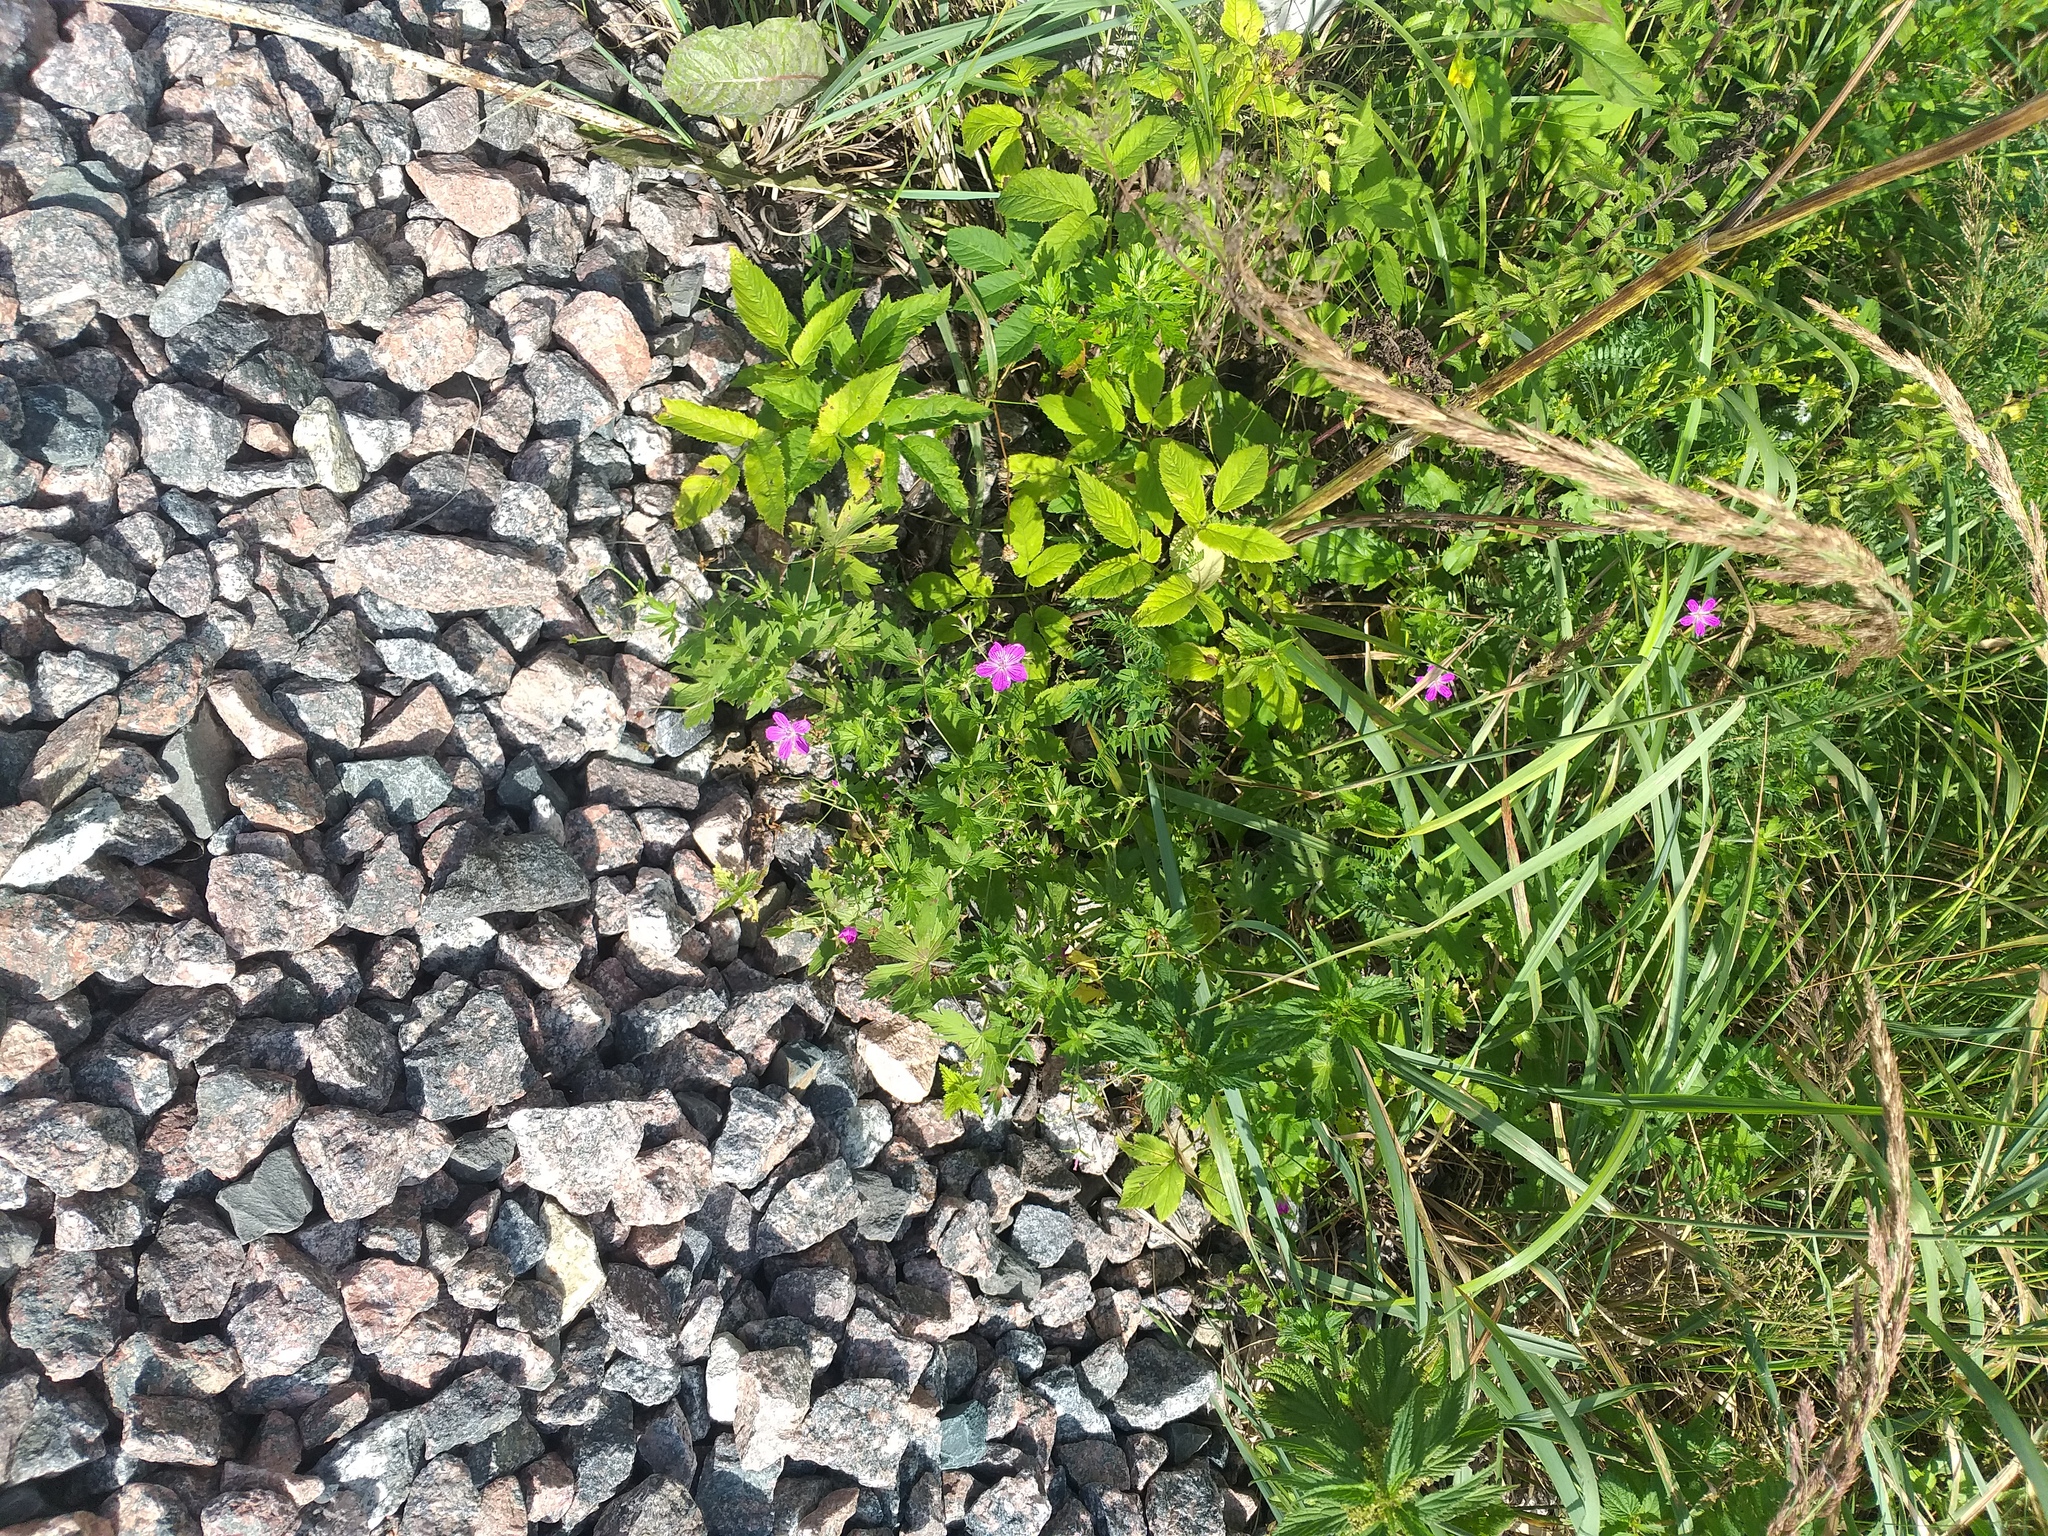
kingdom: Plantae
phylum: Tracheophyta
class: Magnoliopsida
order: Geraniales
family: Geraniaceae
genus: Geranium
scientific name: Geranium palustre
